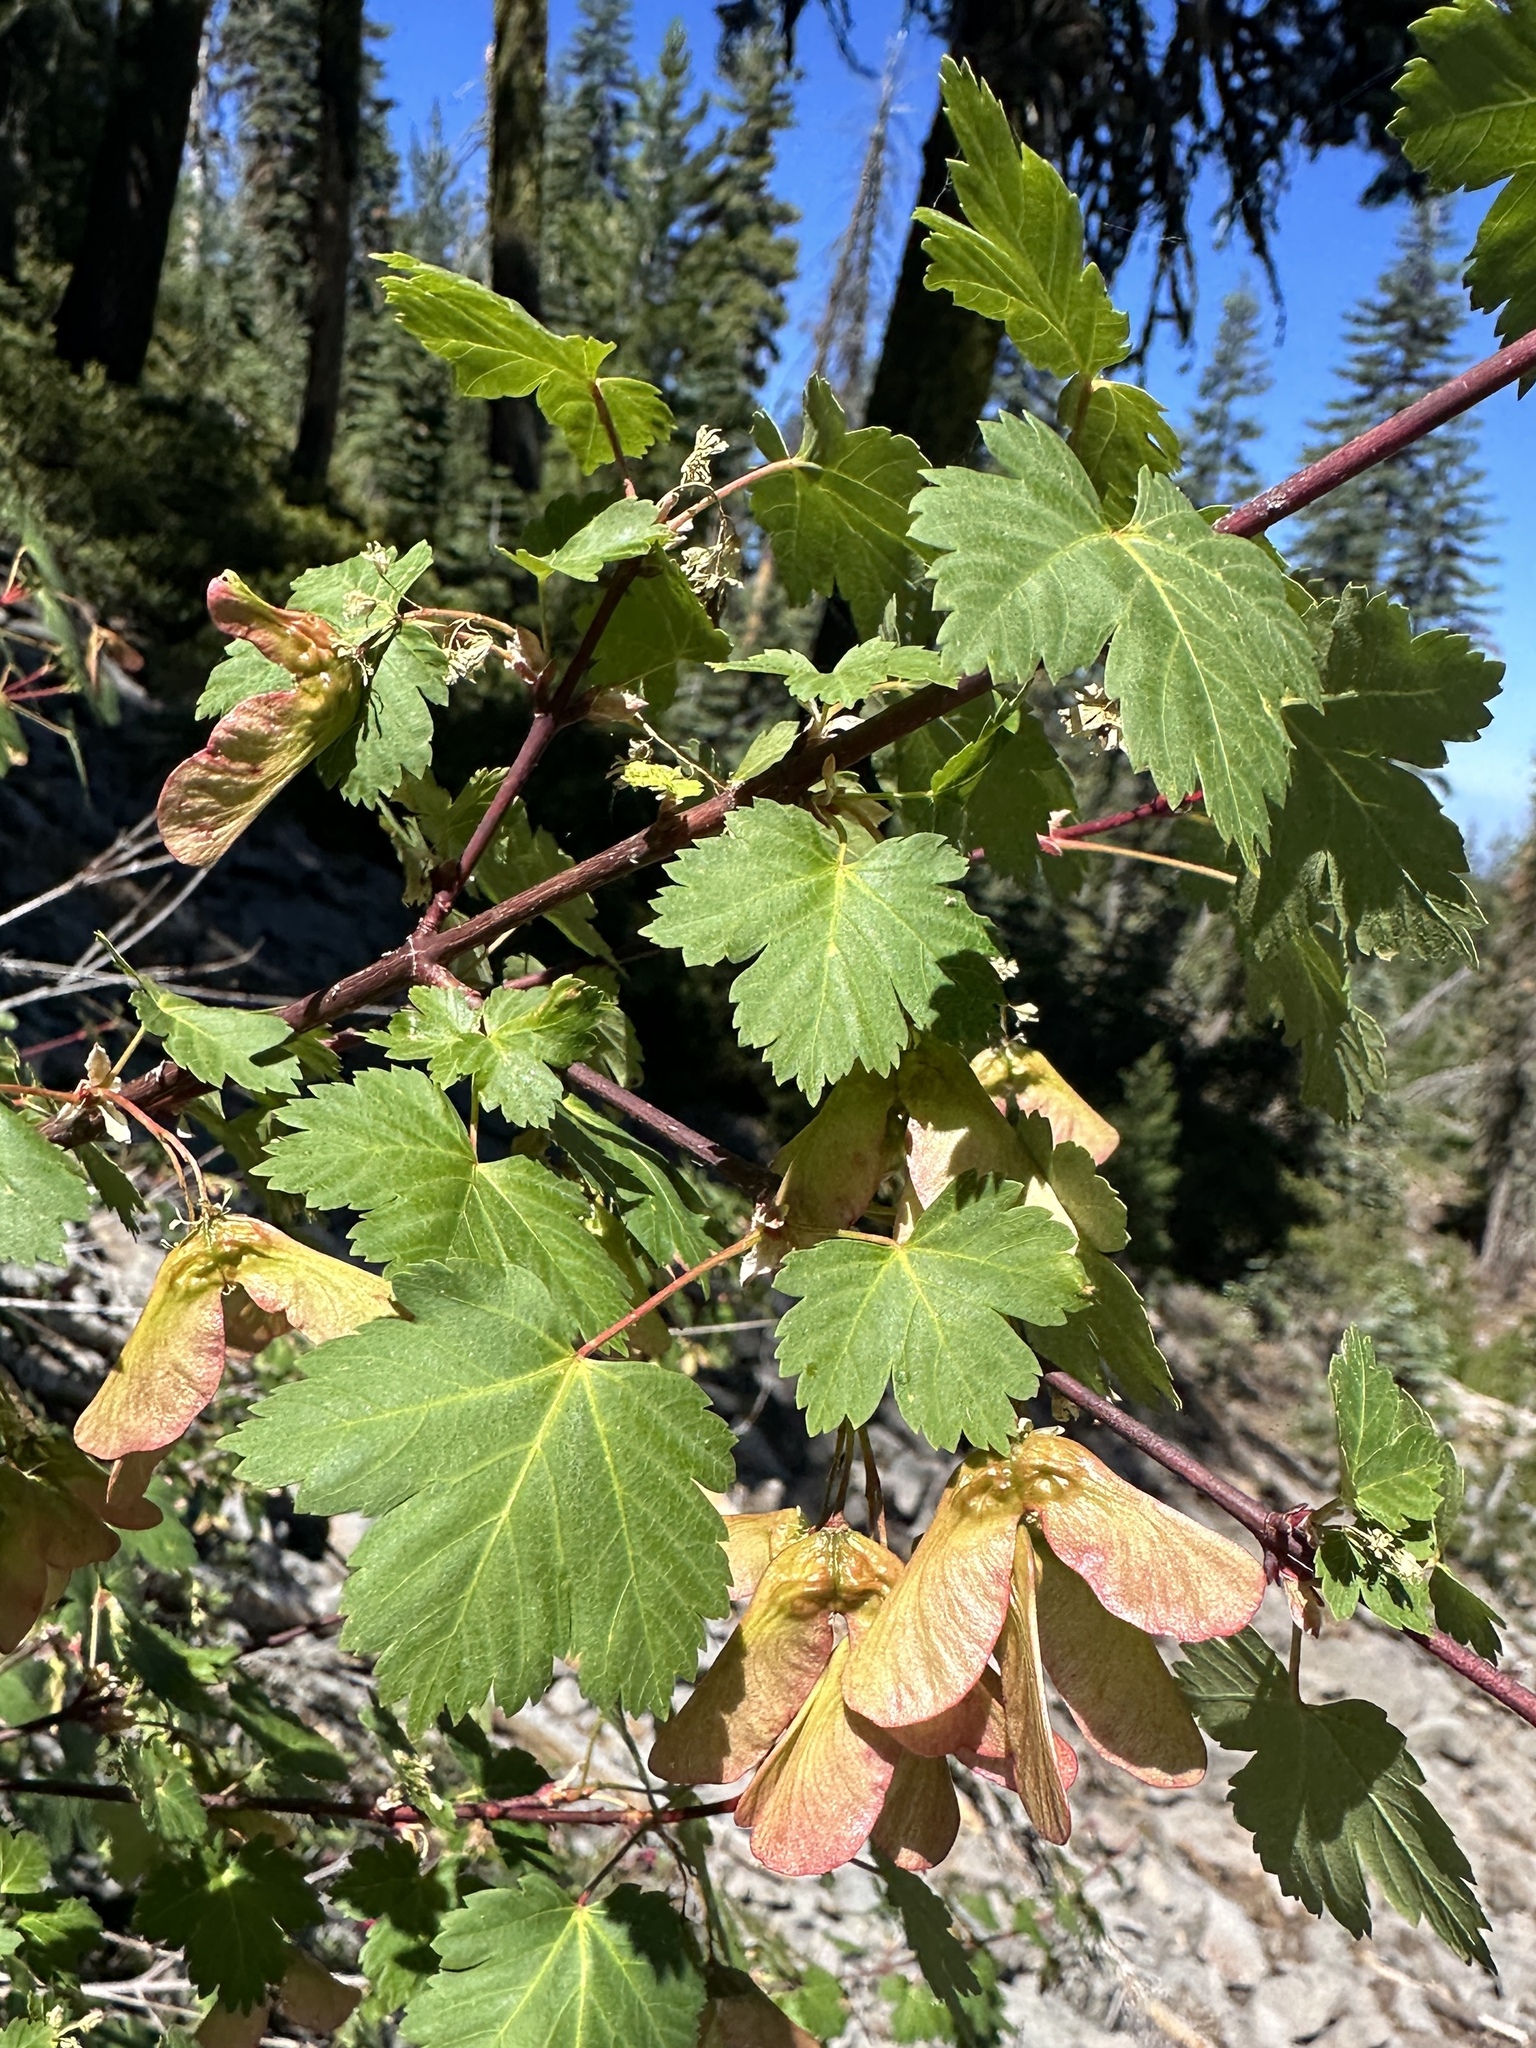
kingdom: Plantae
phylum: Tracheophyta
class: Magnoliopsida
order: Sapindales
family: Sapindaceae
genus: Acer
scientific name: Acer glabrum
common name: Rocky mountain maple
